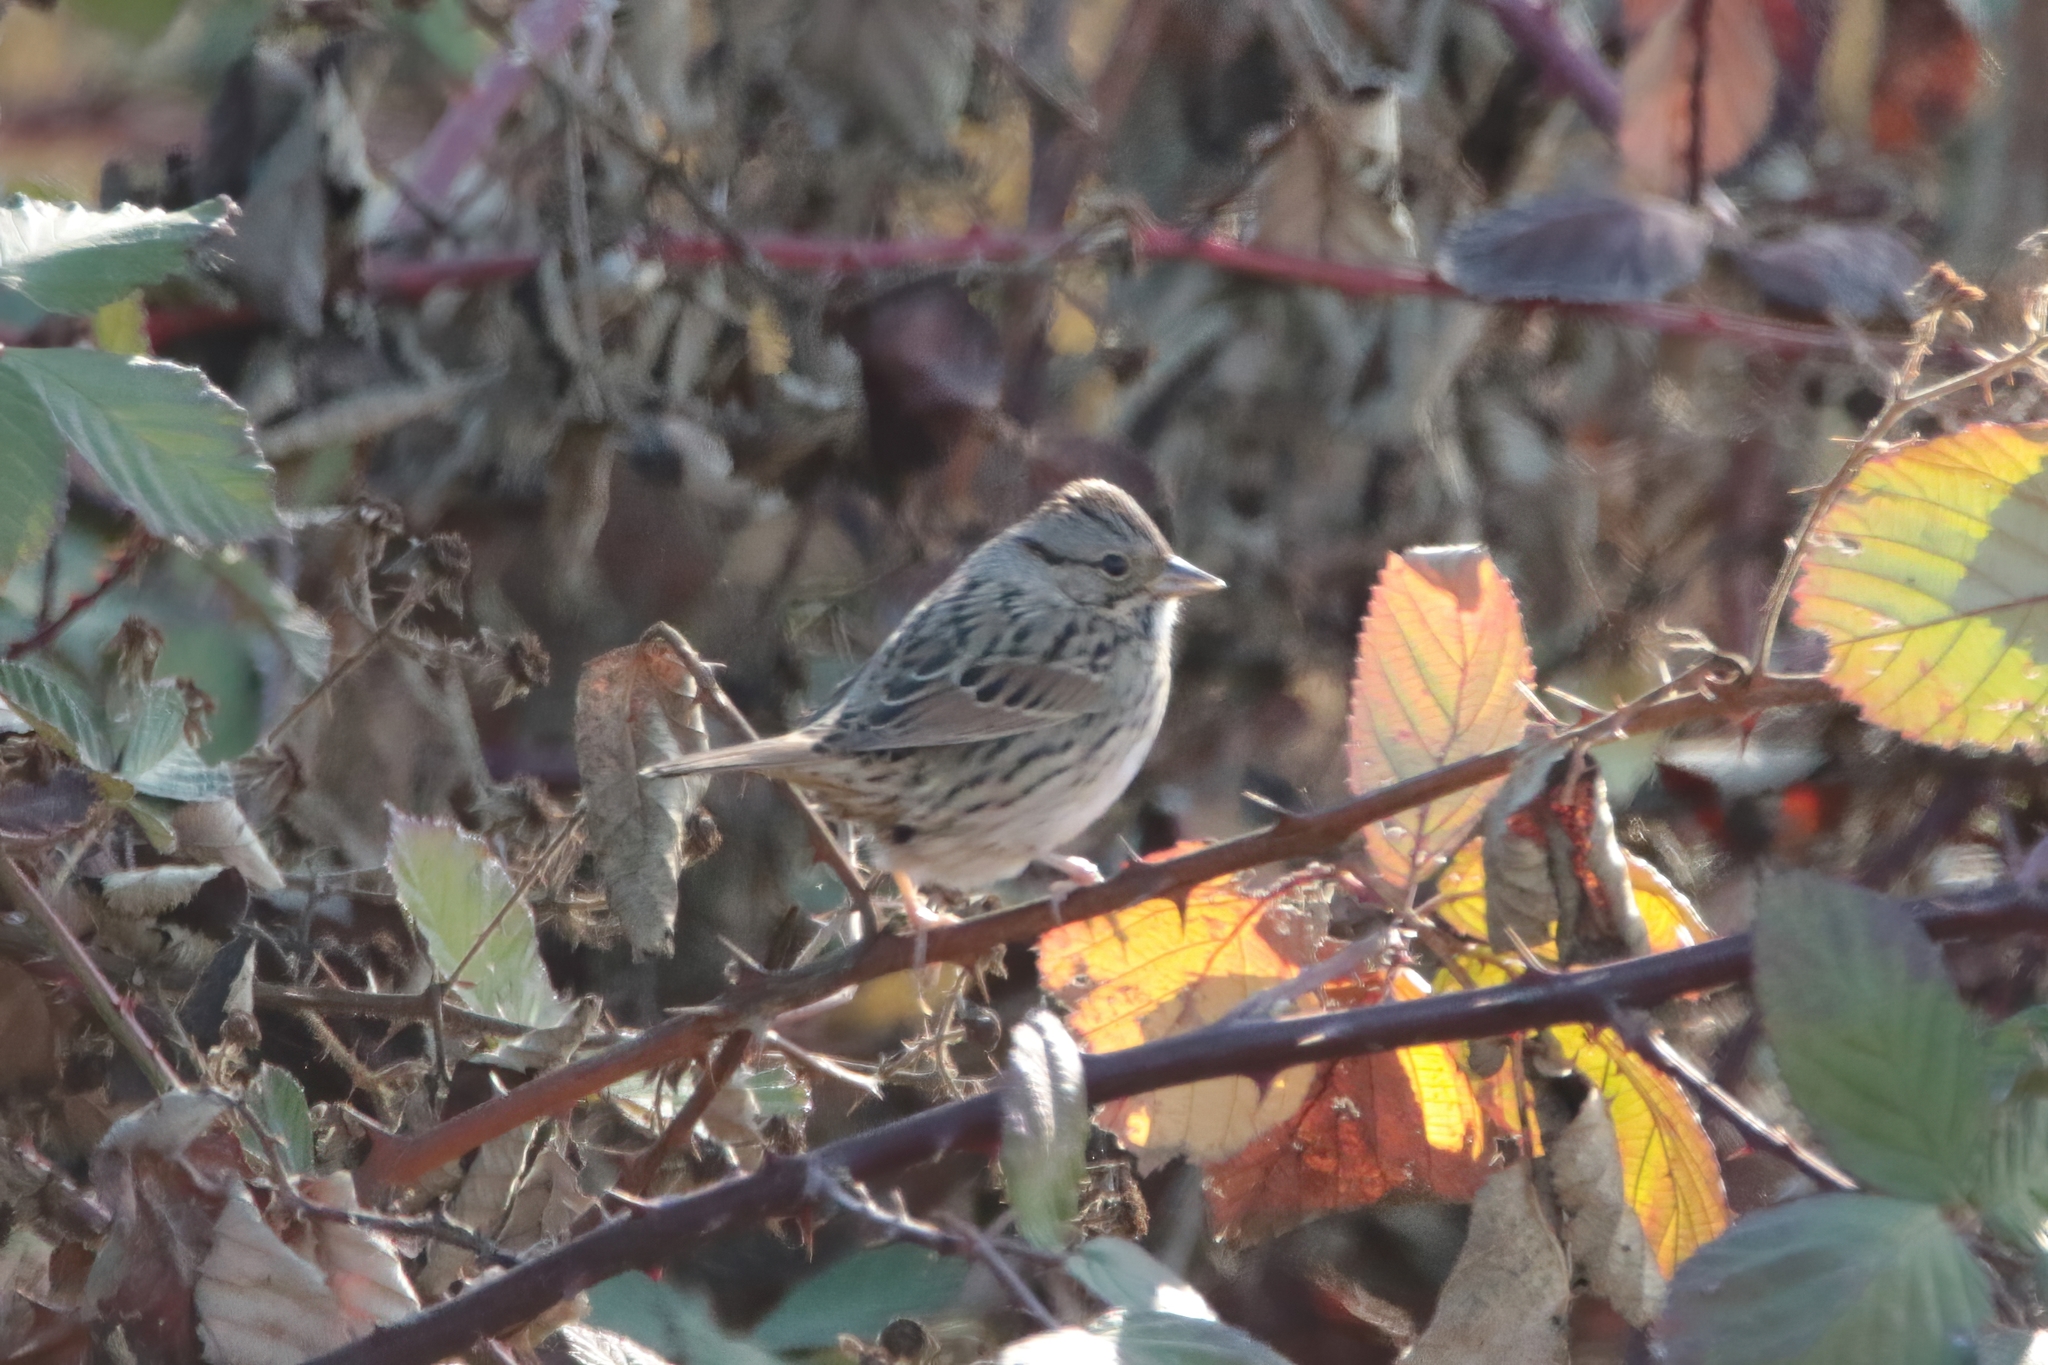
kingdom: Animalia
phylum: Chordata
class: Aves
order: Passeriformes
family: Passerellidae
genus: Melospiza
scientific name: Melospiza lincolnii
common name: Lincoln's sparrow
